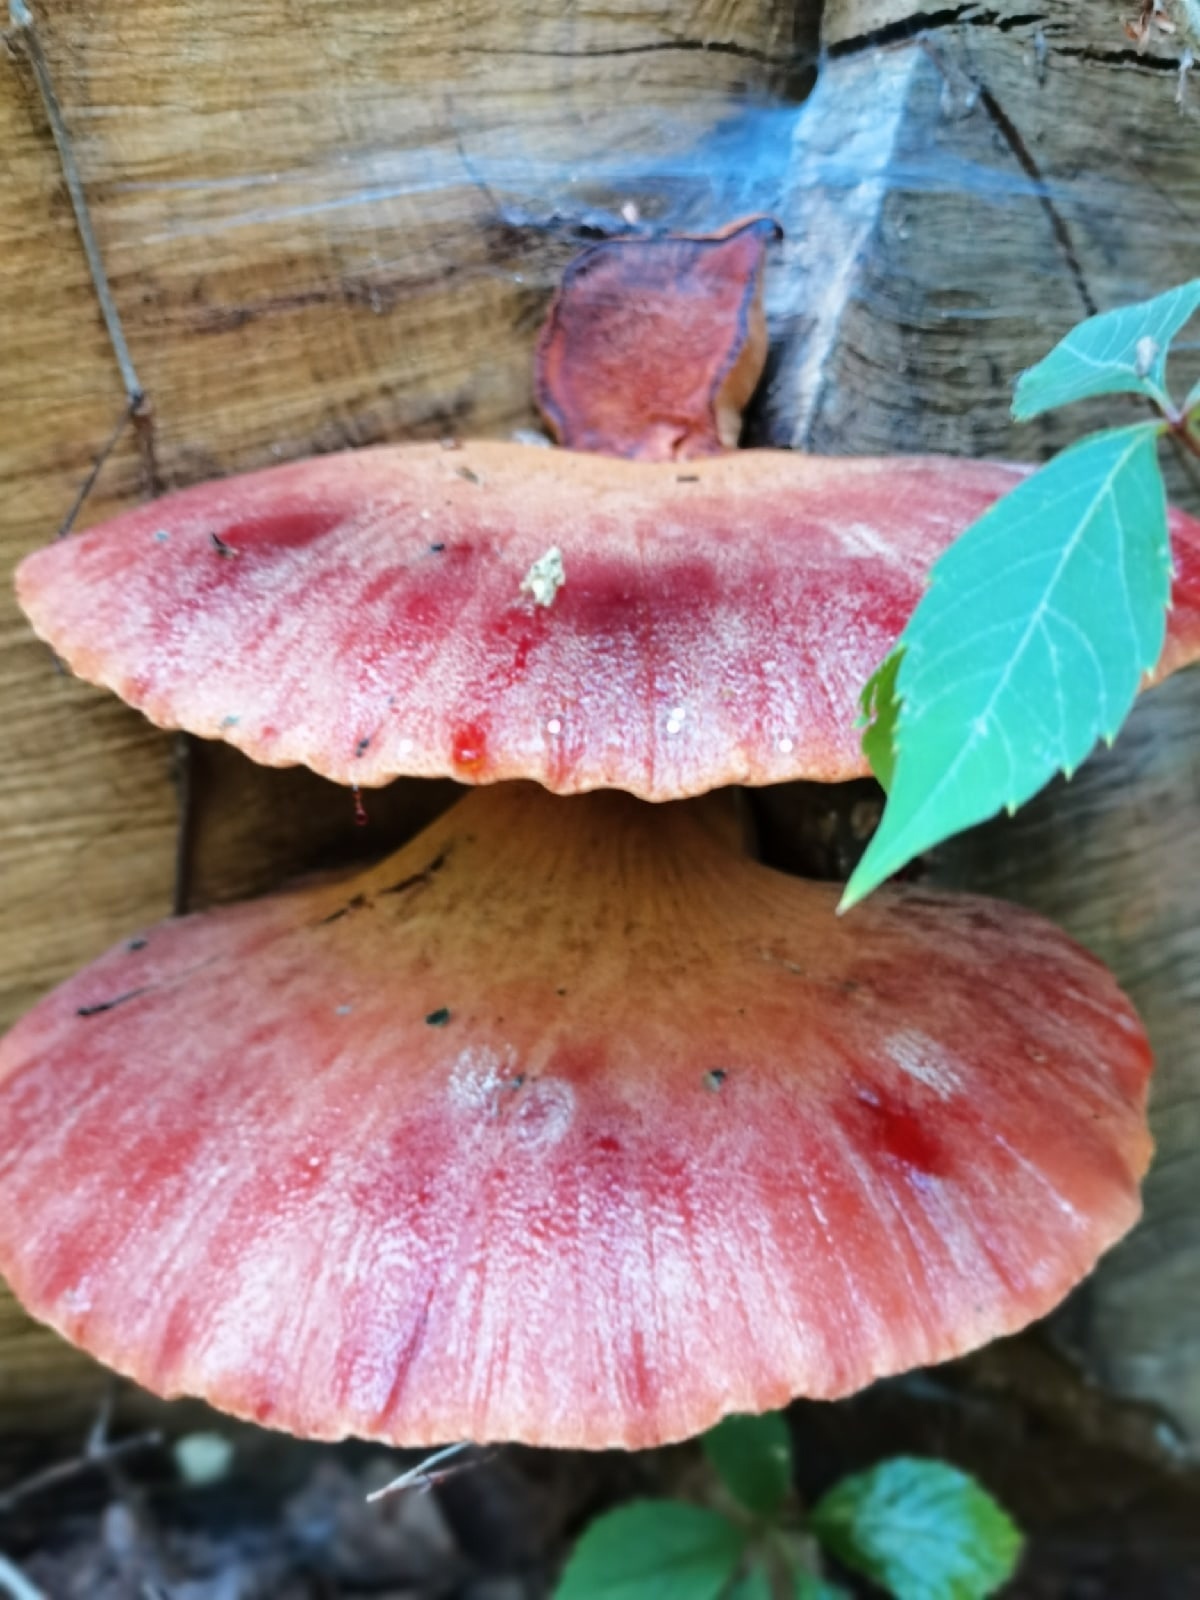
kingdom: Fungi
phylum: Basidiomycota
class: Agaricomycetes
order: Agaricales
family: Fistulinaceae
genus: Fistulina
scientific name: Fistulina hepatica
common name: Beef-steak fungus
